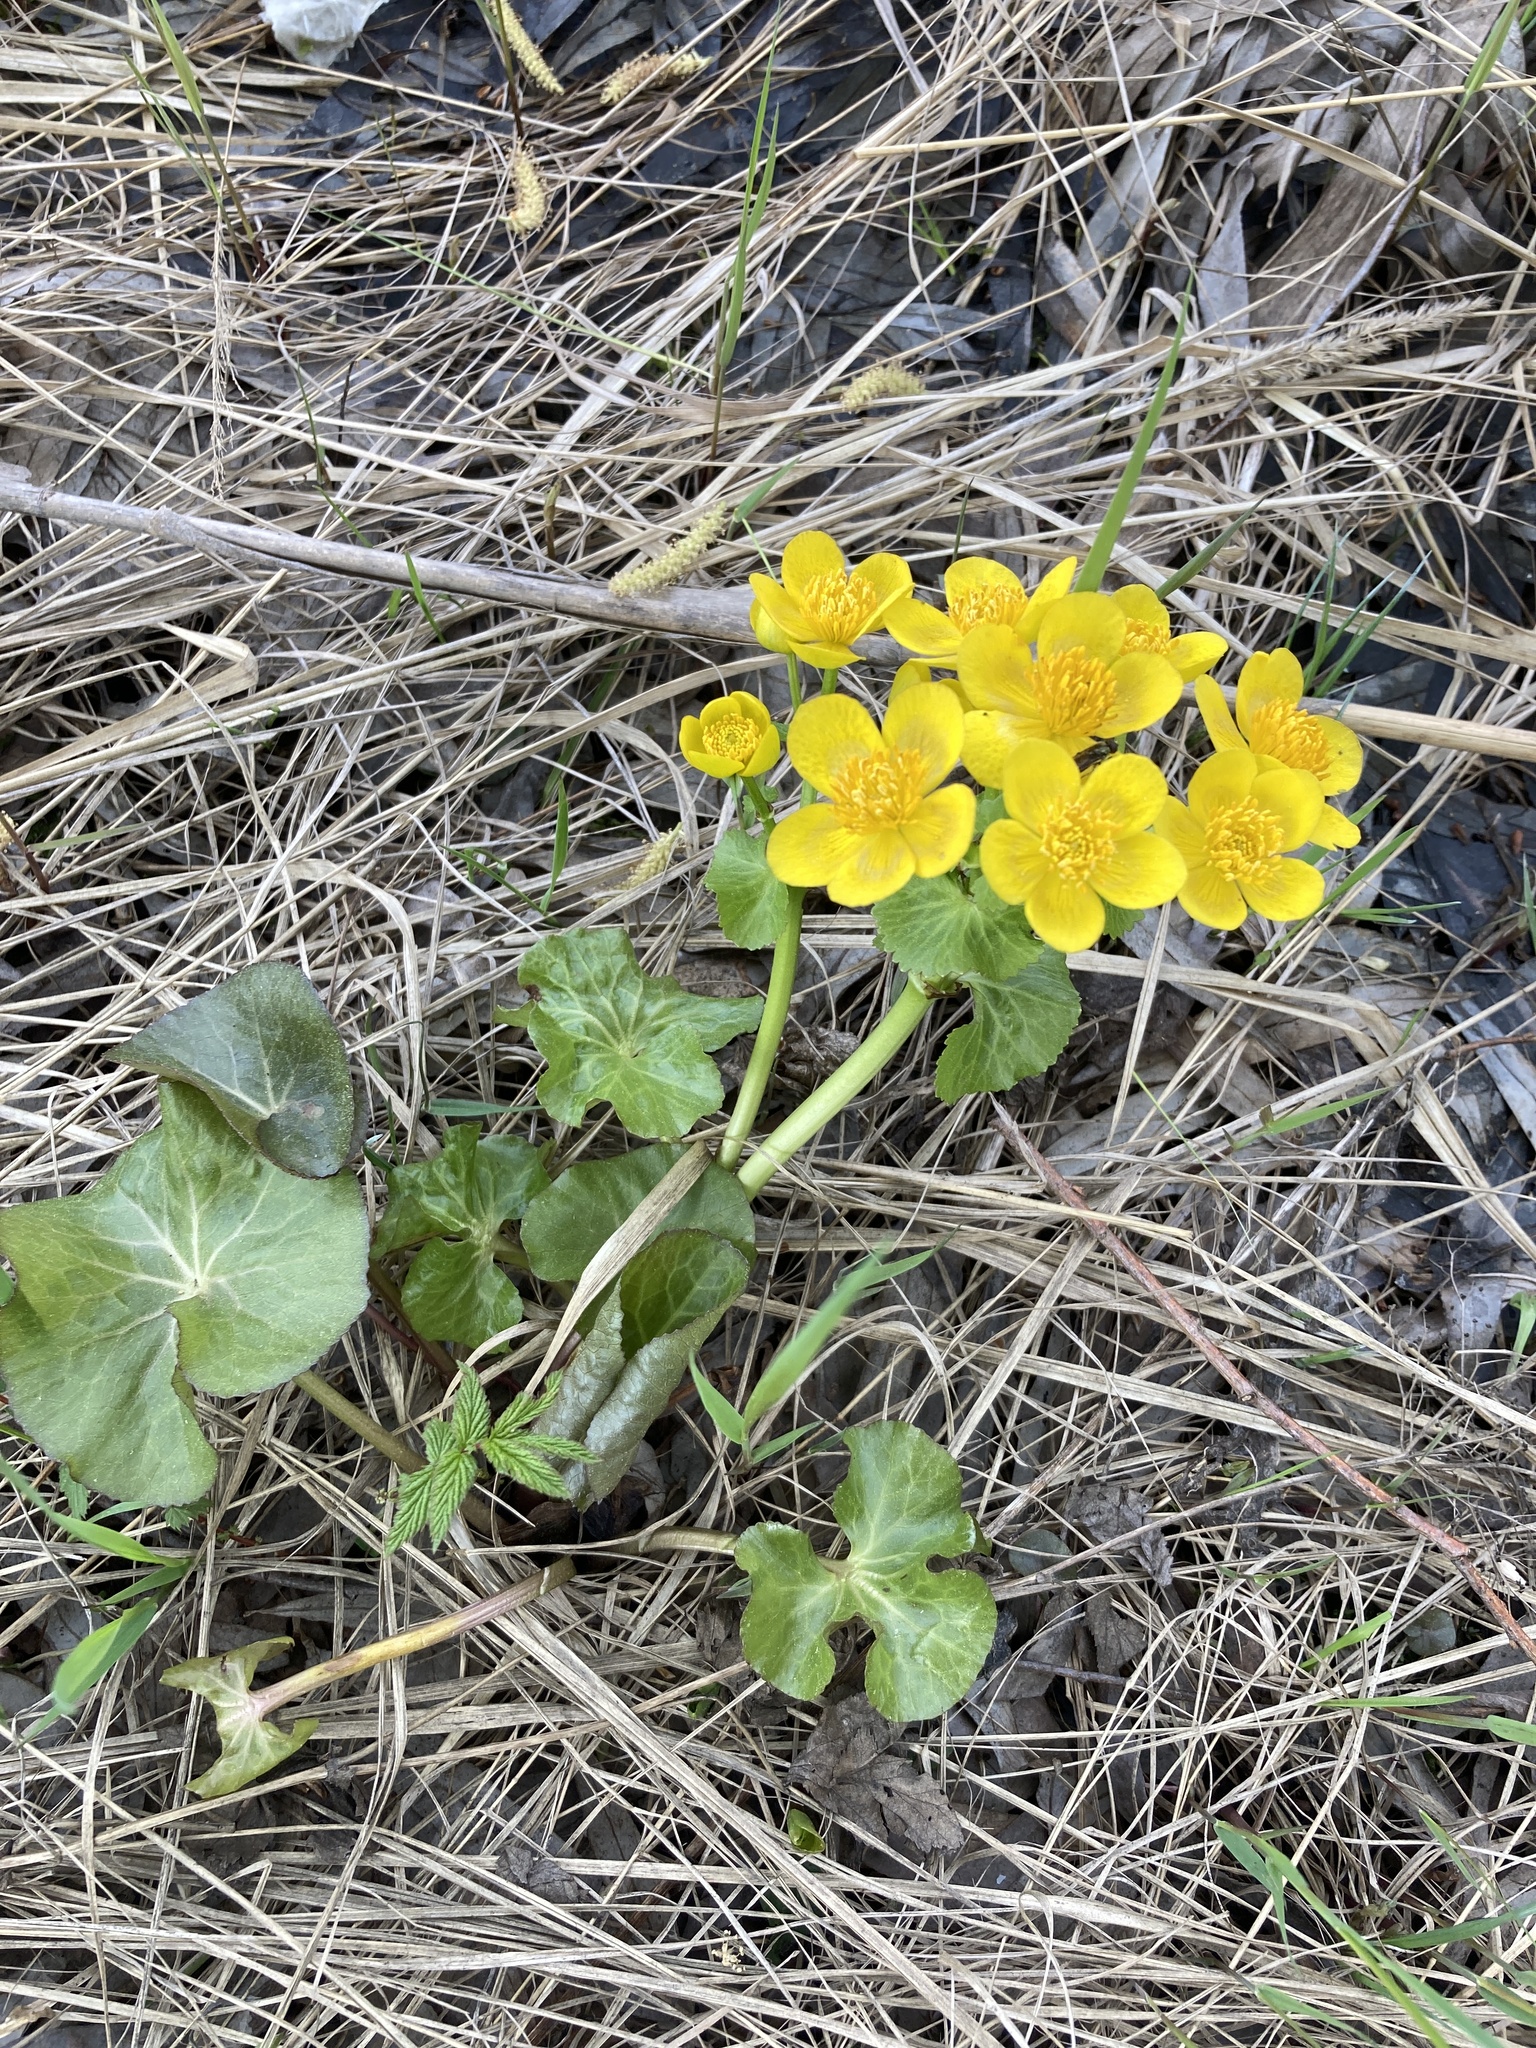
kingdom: Plantae
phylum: Tracheophyta
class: Magnoliopsida
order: Ranunculales
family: Ranunculaceae
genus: Caltha
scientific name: Caltha palustris
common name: Marsh marigold
